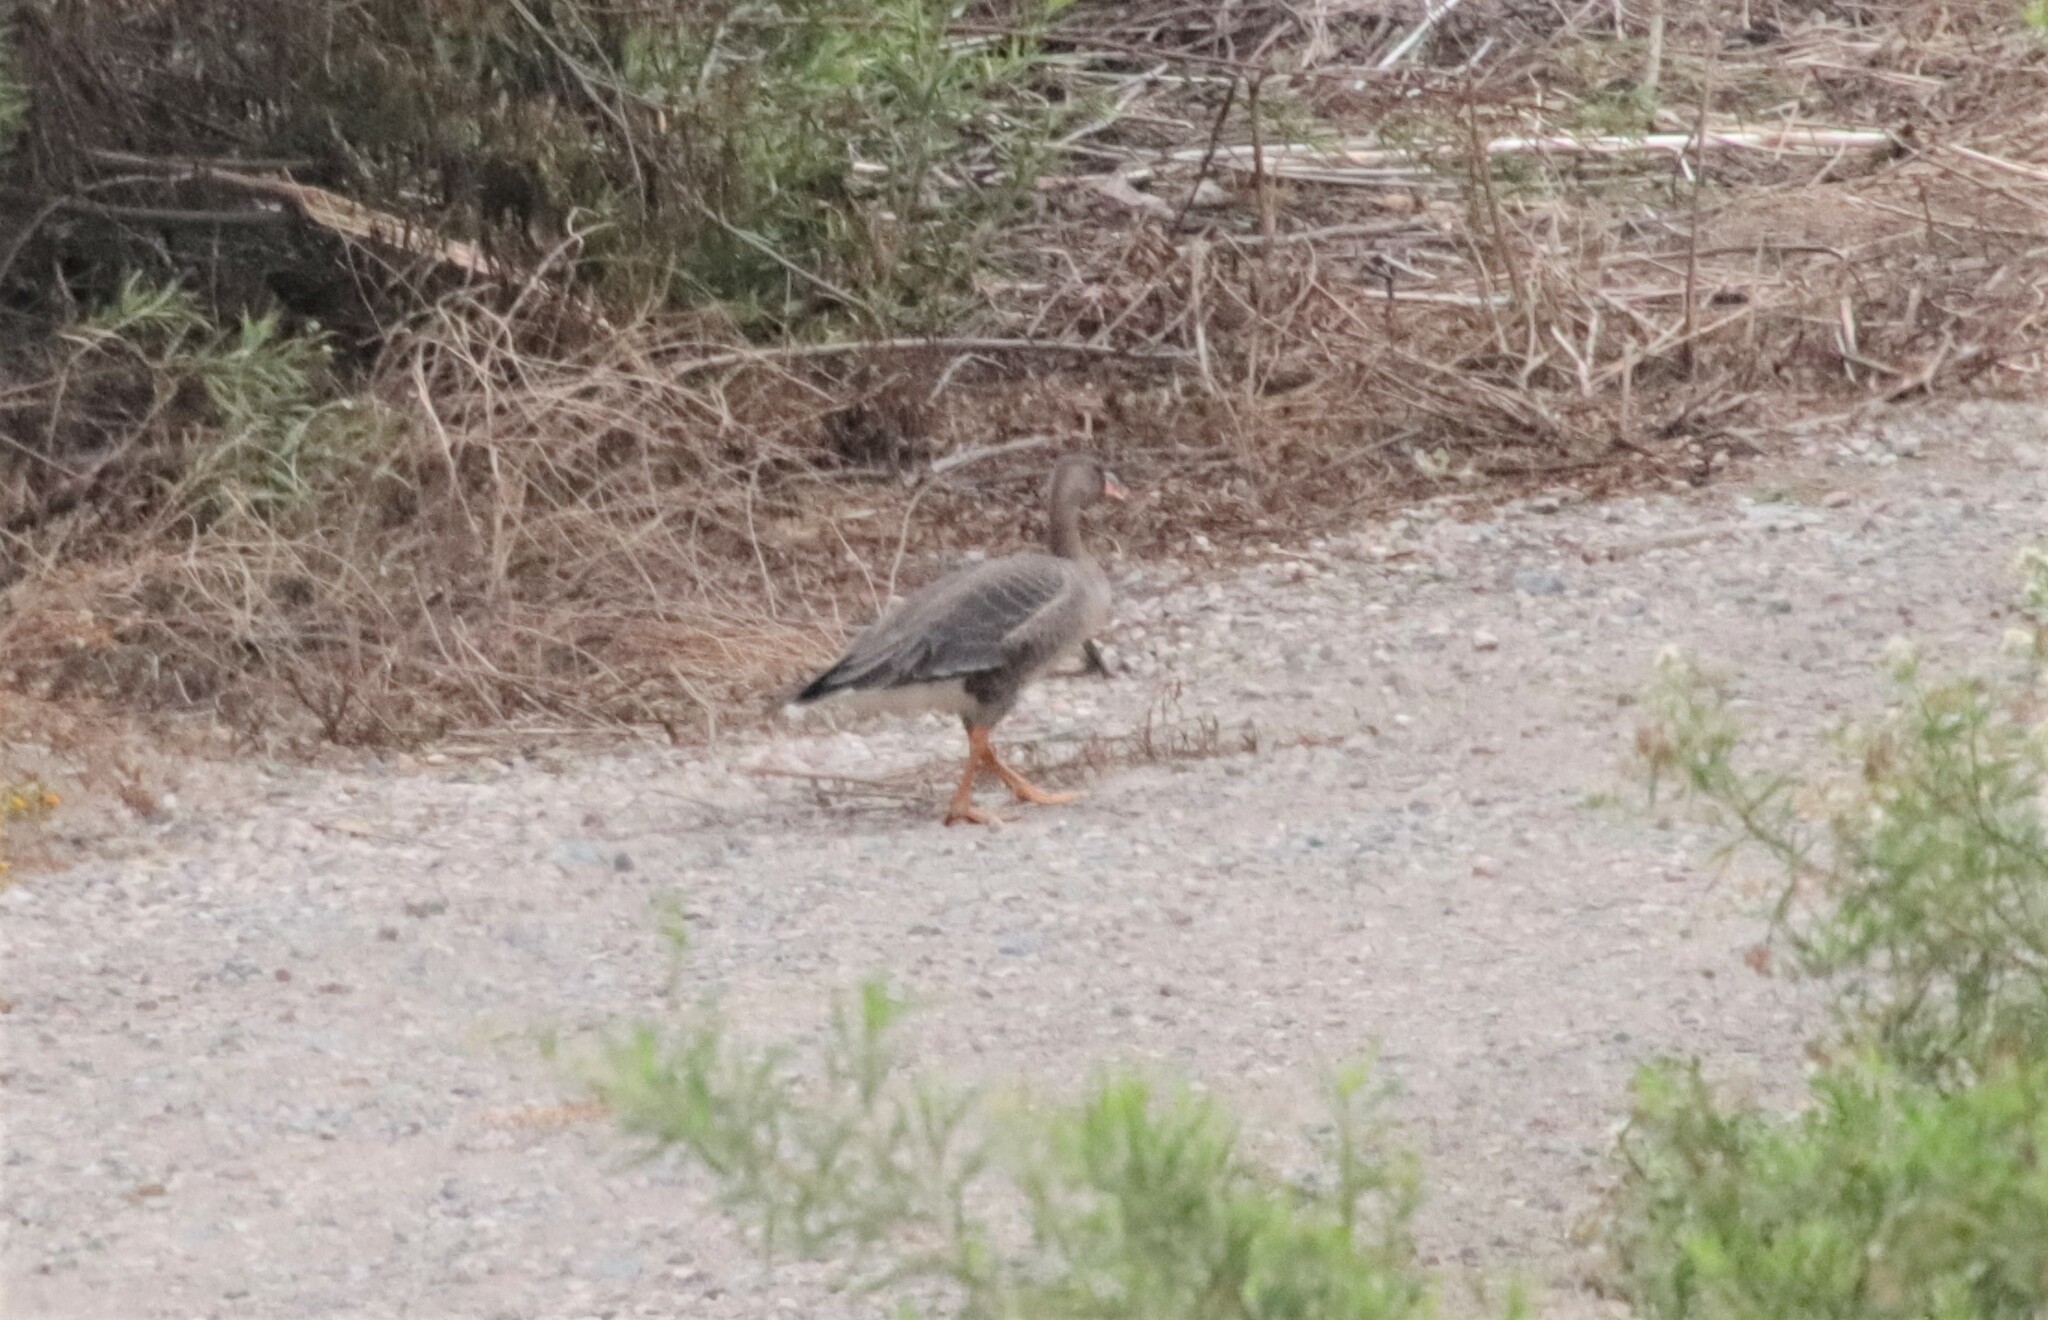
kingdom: Animalia
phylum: Chordata
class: Aves
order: Anseriformes
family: Anatidae
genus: Anser
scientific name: Anser albifrons
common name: Greater white-fronted goose
